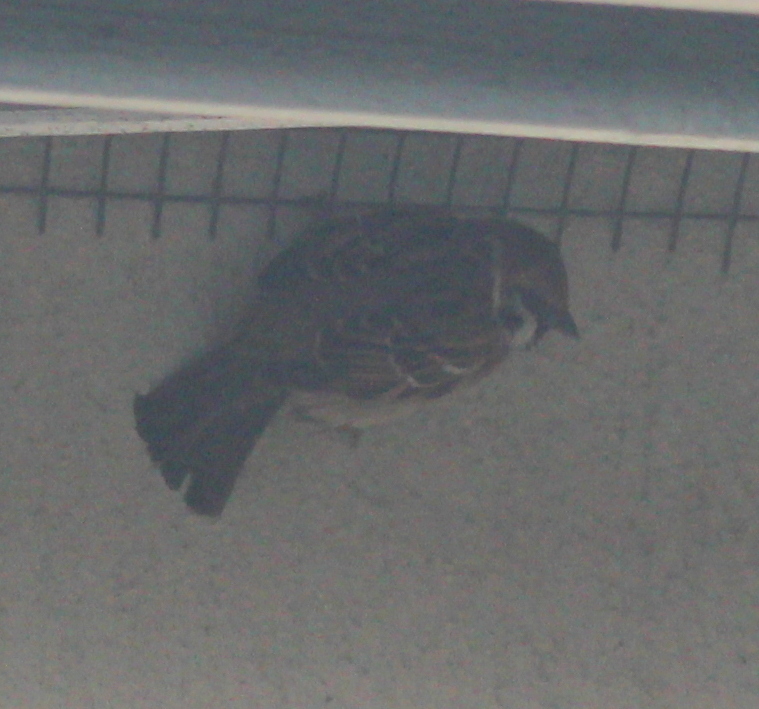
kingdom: Animalia
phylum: Chordata
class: Aves
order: Passeriformes
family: Passeridae
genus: Passer
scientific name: Passer montanus
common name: Eurasian tree sparrow
